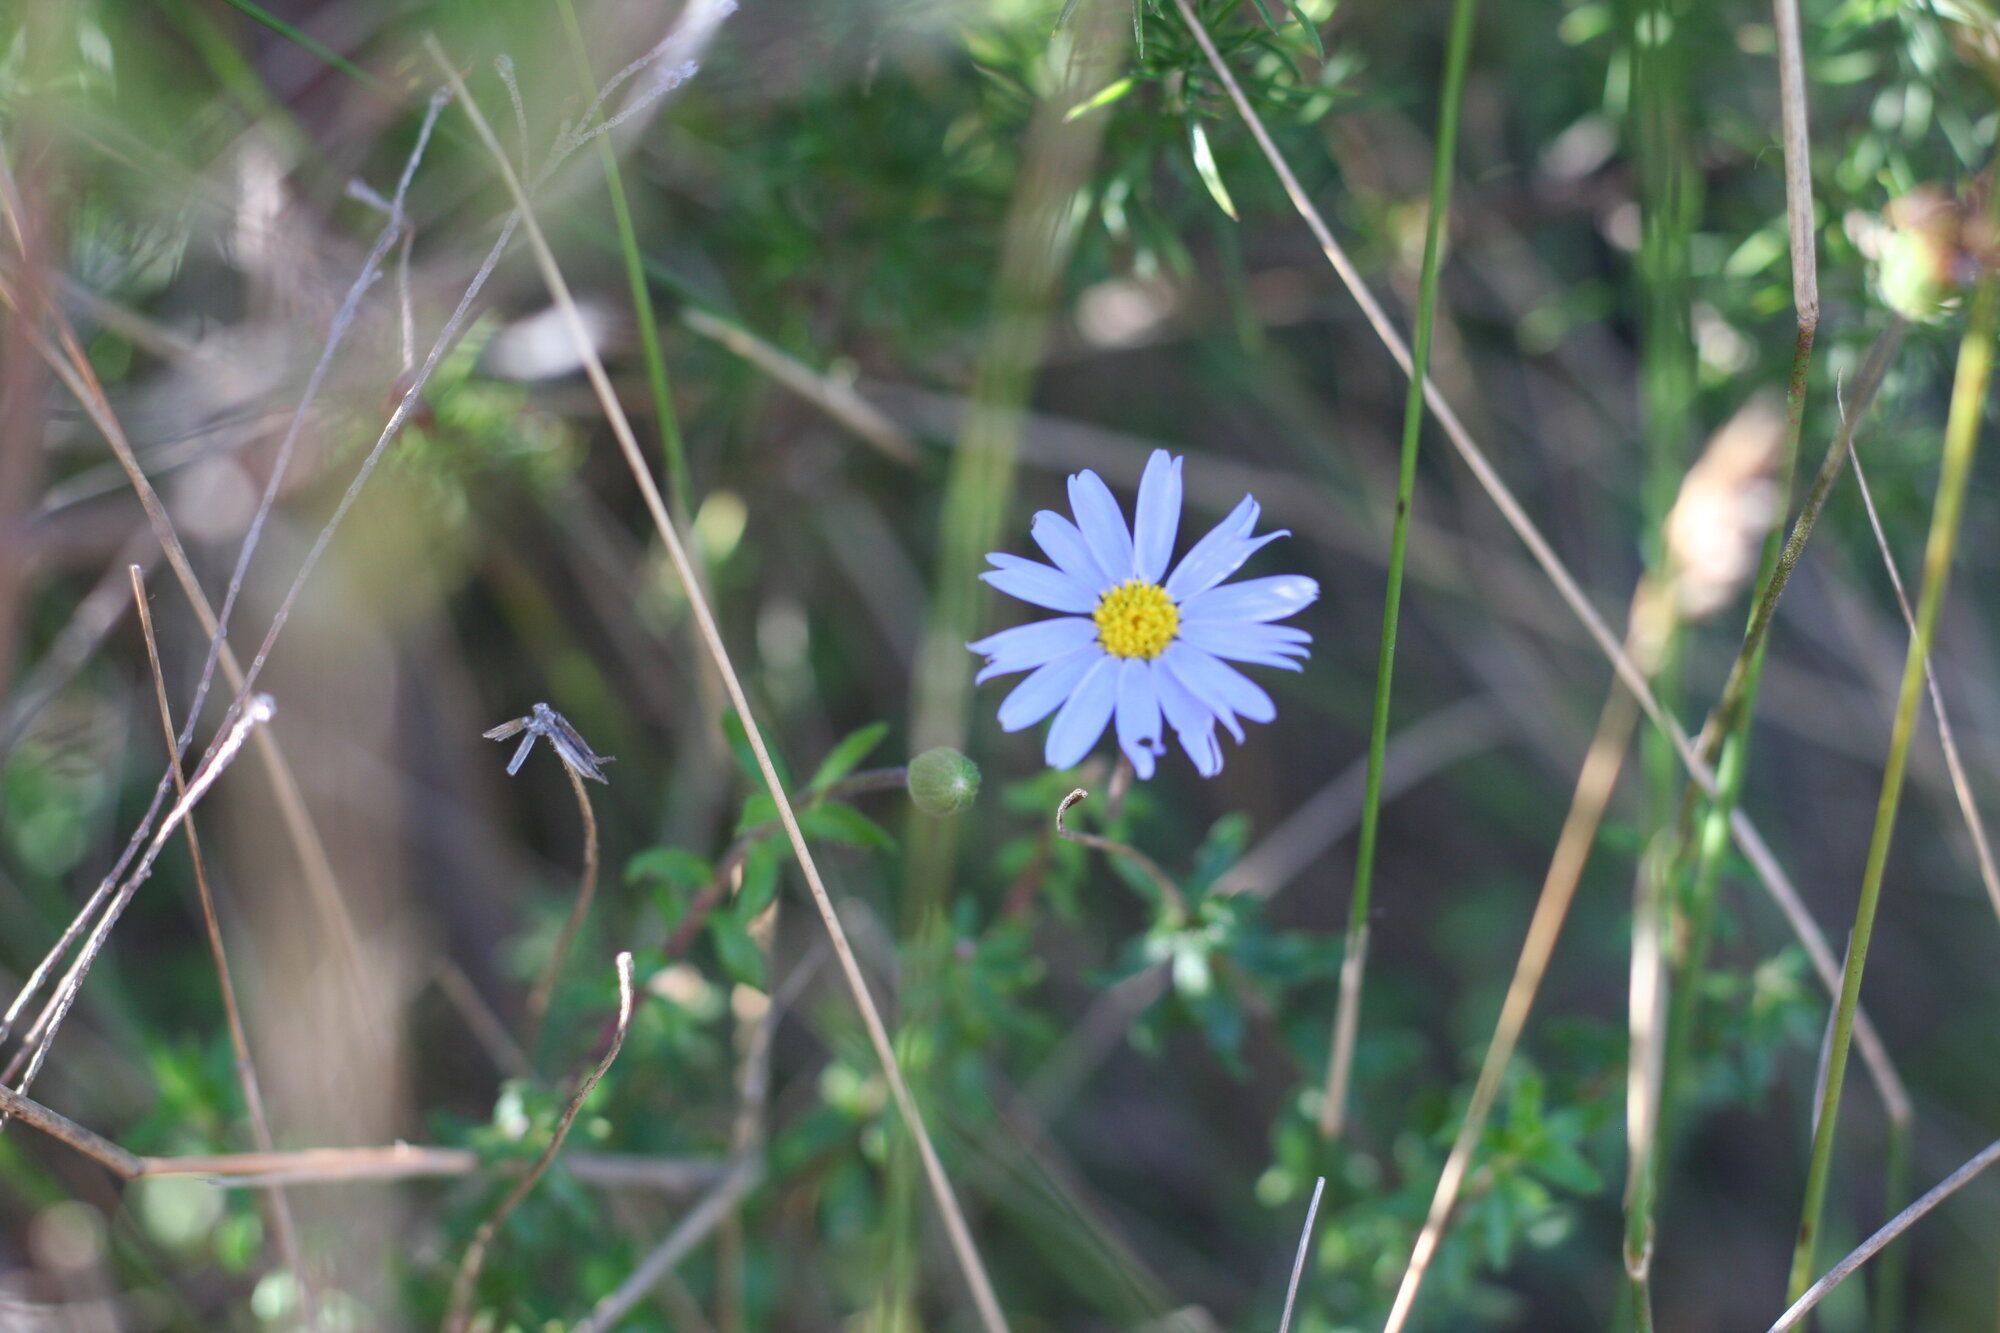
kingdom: Plantae
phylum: Tracheophyta
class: Magnoliopsida
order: Asterales
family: Asteraceae
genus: Felicia
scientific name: Felicia aethiopica
